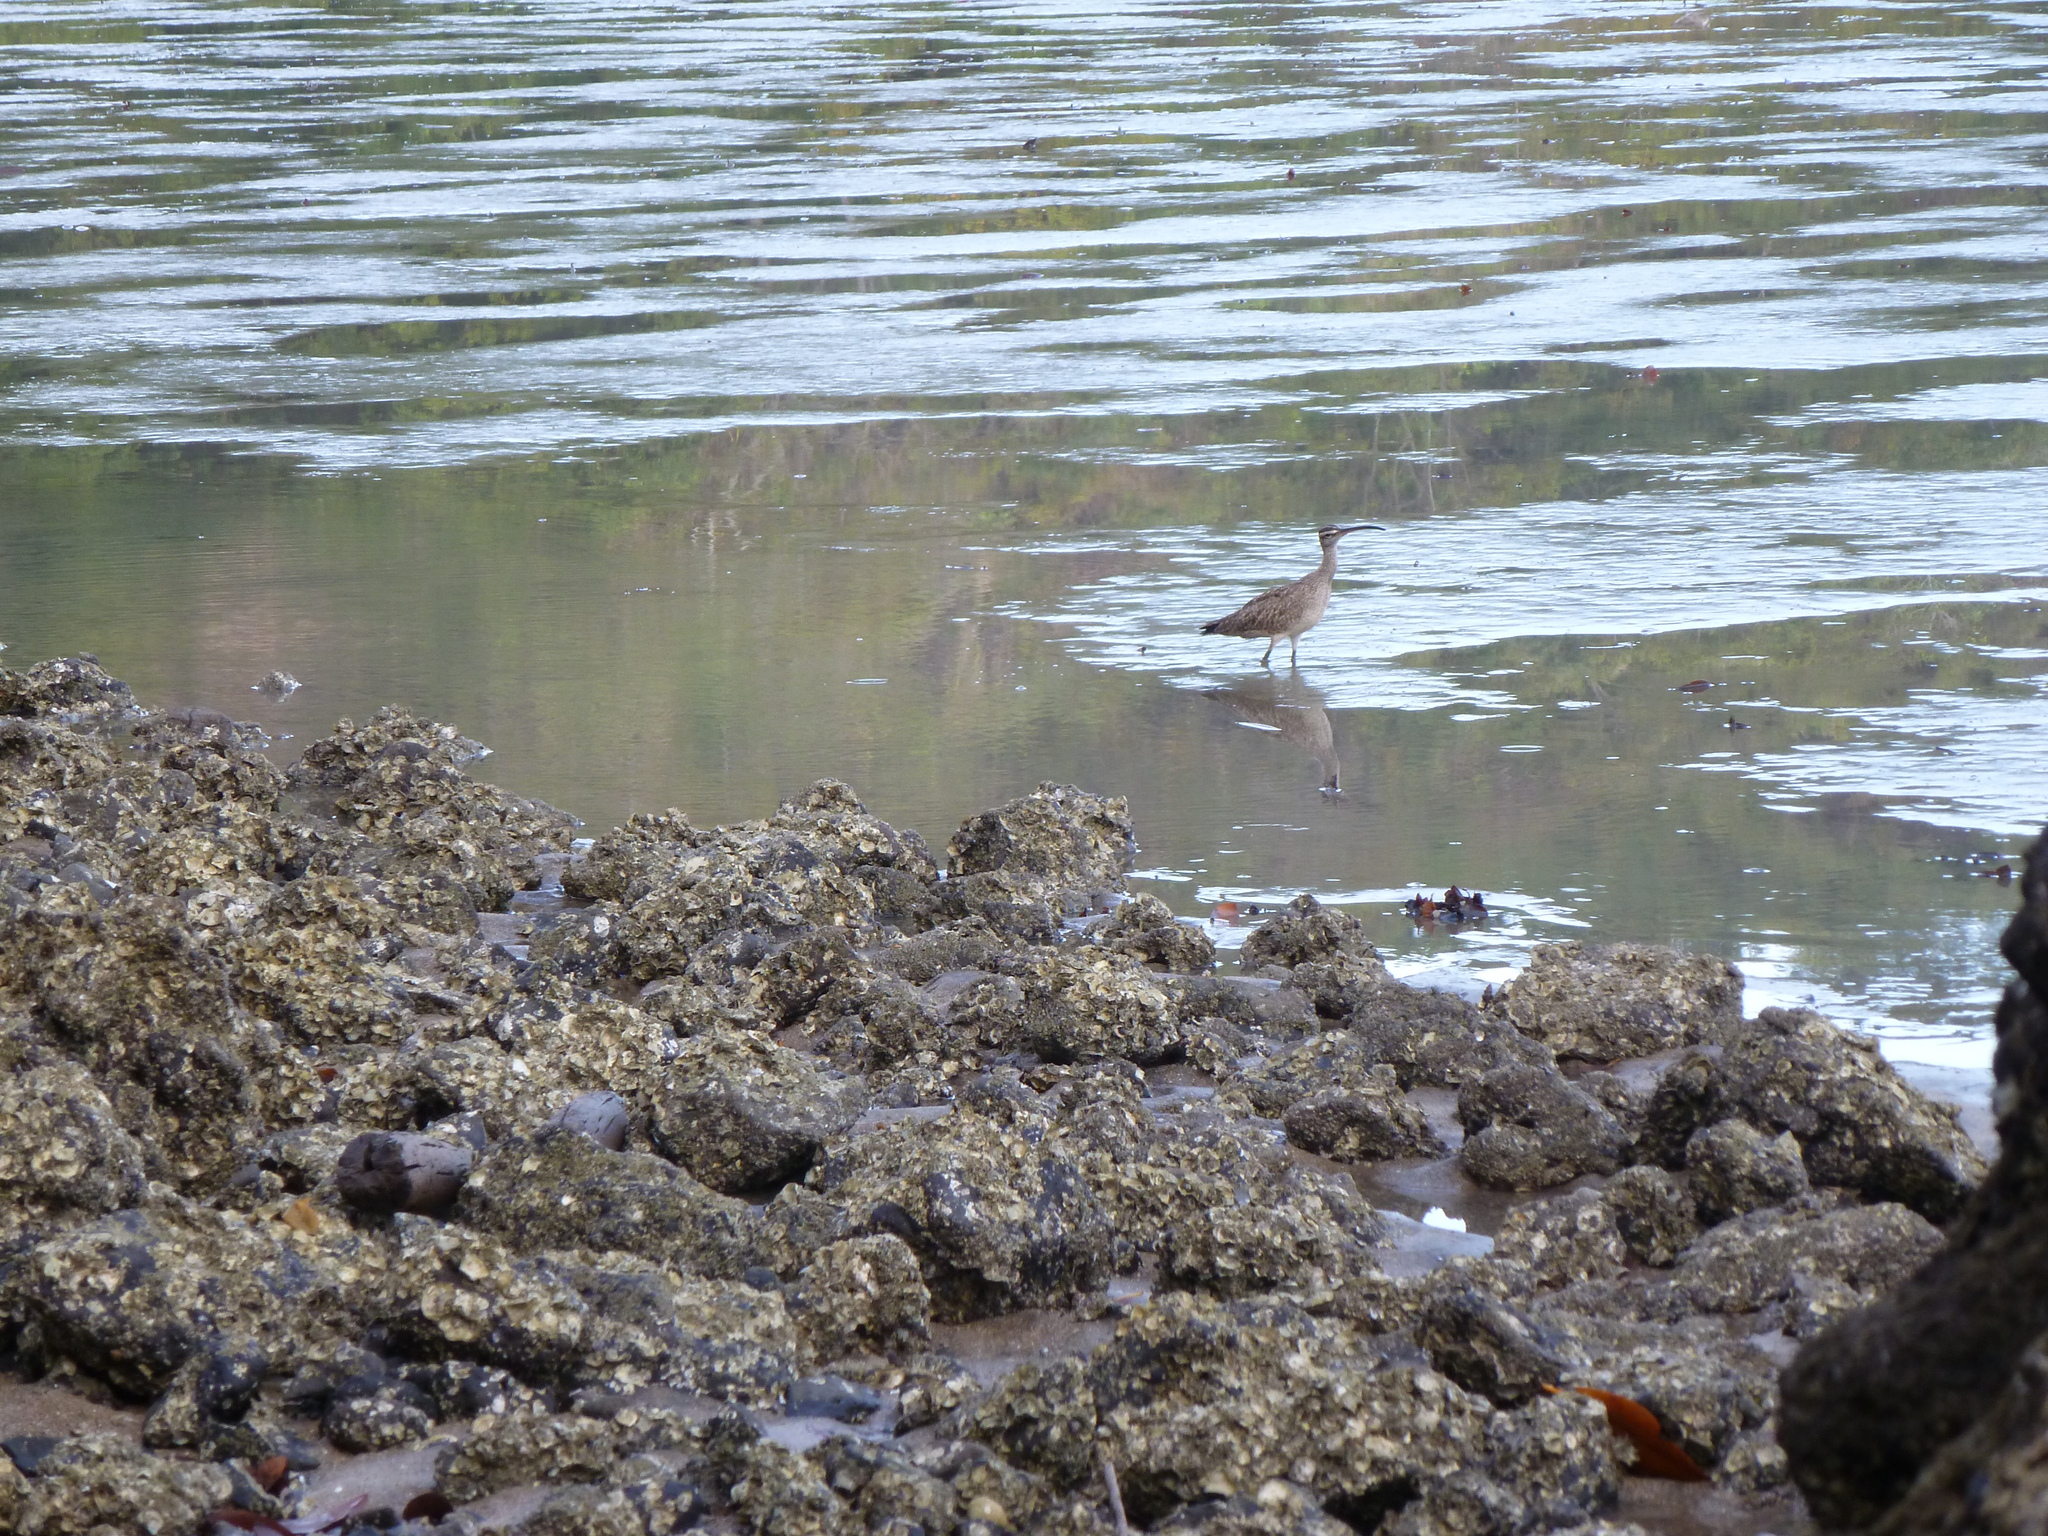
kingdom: Animalia
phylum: Chordata
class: Aves
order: Charadriiformes
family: Scolopacidae
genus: Numenius
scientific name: Numenius phaeopus
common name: Whimbrel
